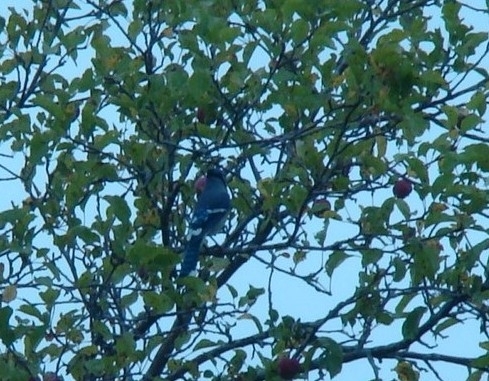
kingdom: Animalia
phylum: Chordata
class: Aves
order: Passeriformes
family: Corvidae
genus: Cyanocitta
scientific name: Cyanocitta cristata
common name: Blue jay
